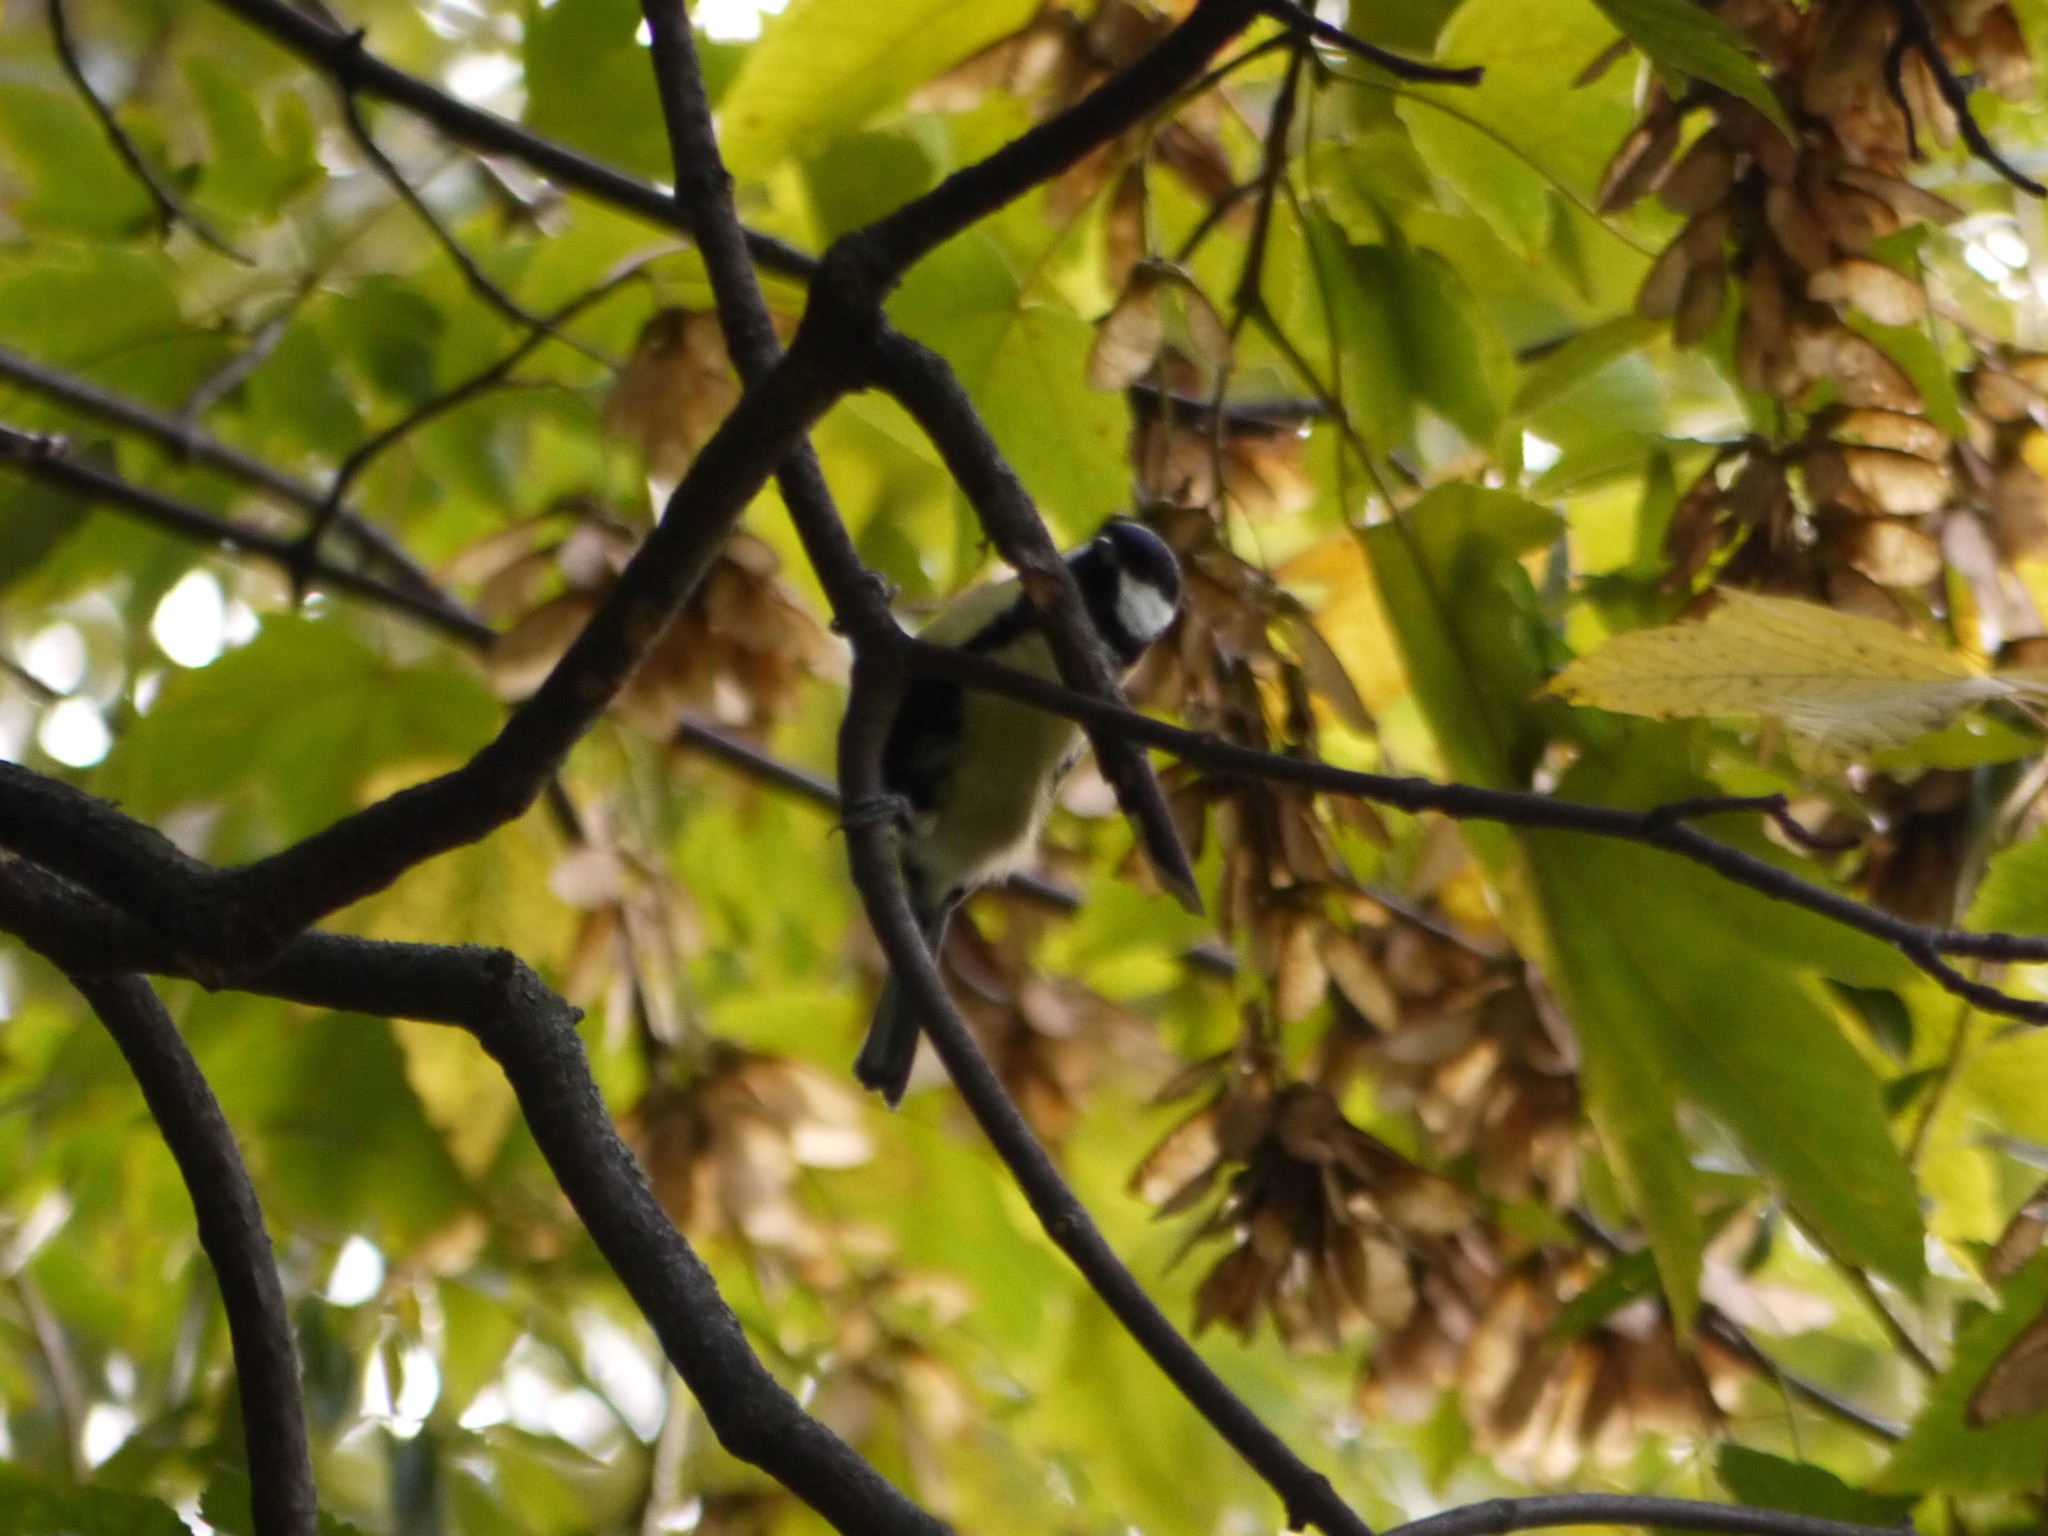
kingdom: Animalia
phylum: Chordata
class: Aves
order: Passeriformes
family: Paridae
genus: Parus
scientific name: Parus major
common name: Great tit
